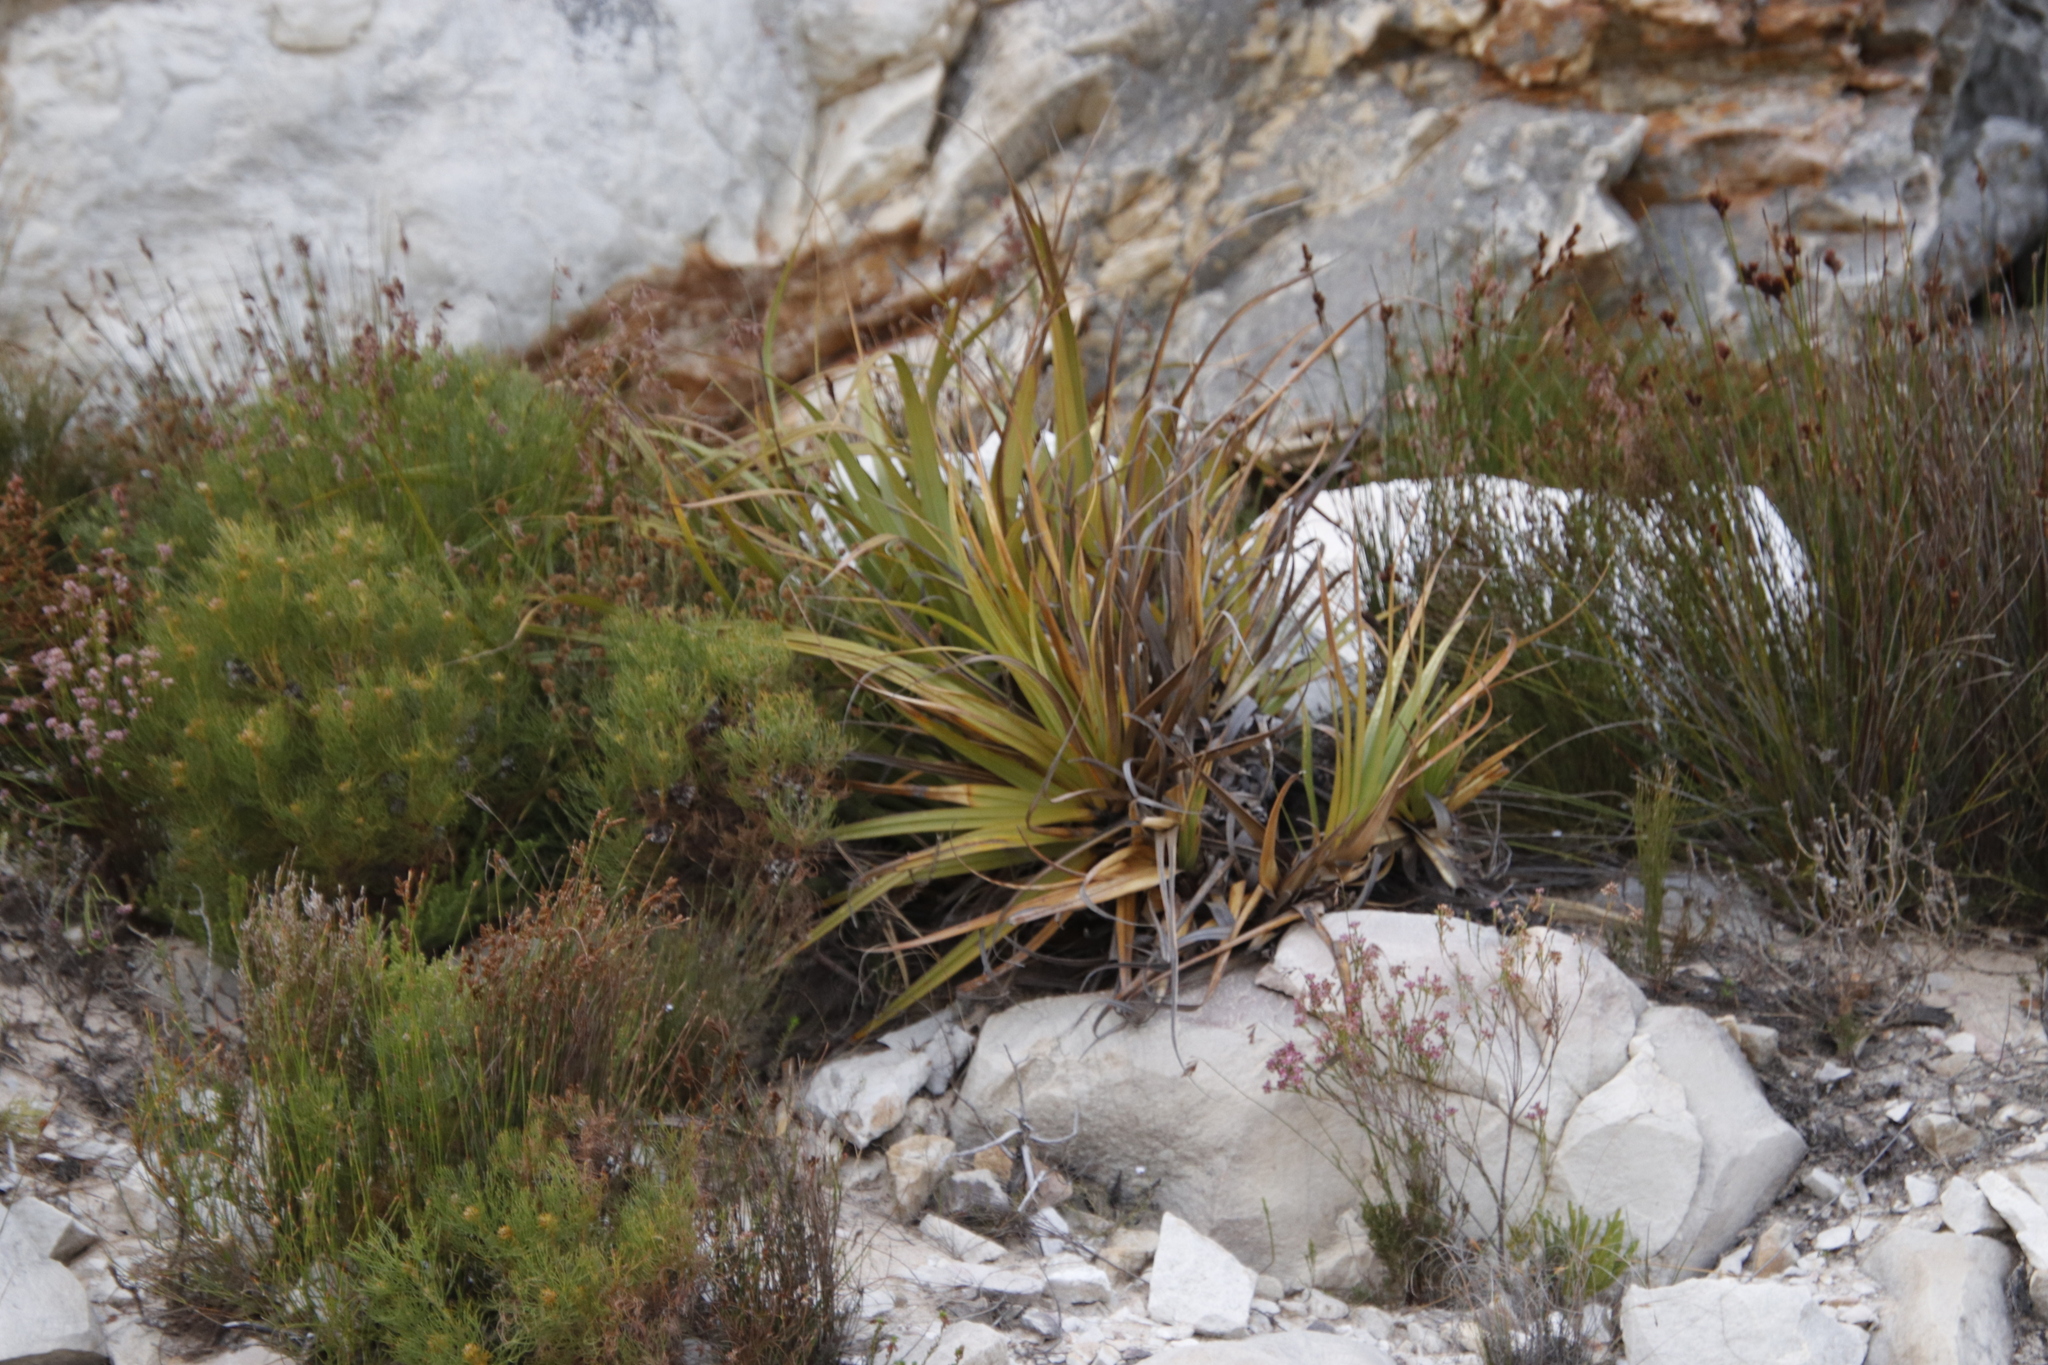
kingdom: Plantae
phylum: Tracheophyta
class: Liliopsida
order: Poales
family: Cyperaceae
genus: Tetraria
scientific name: Tetraria thermalis
